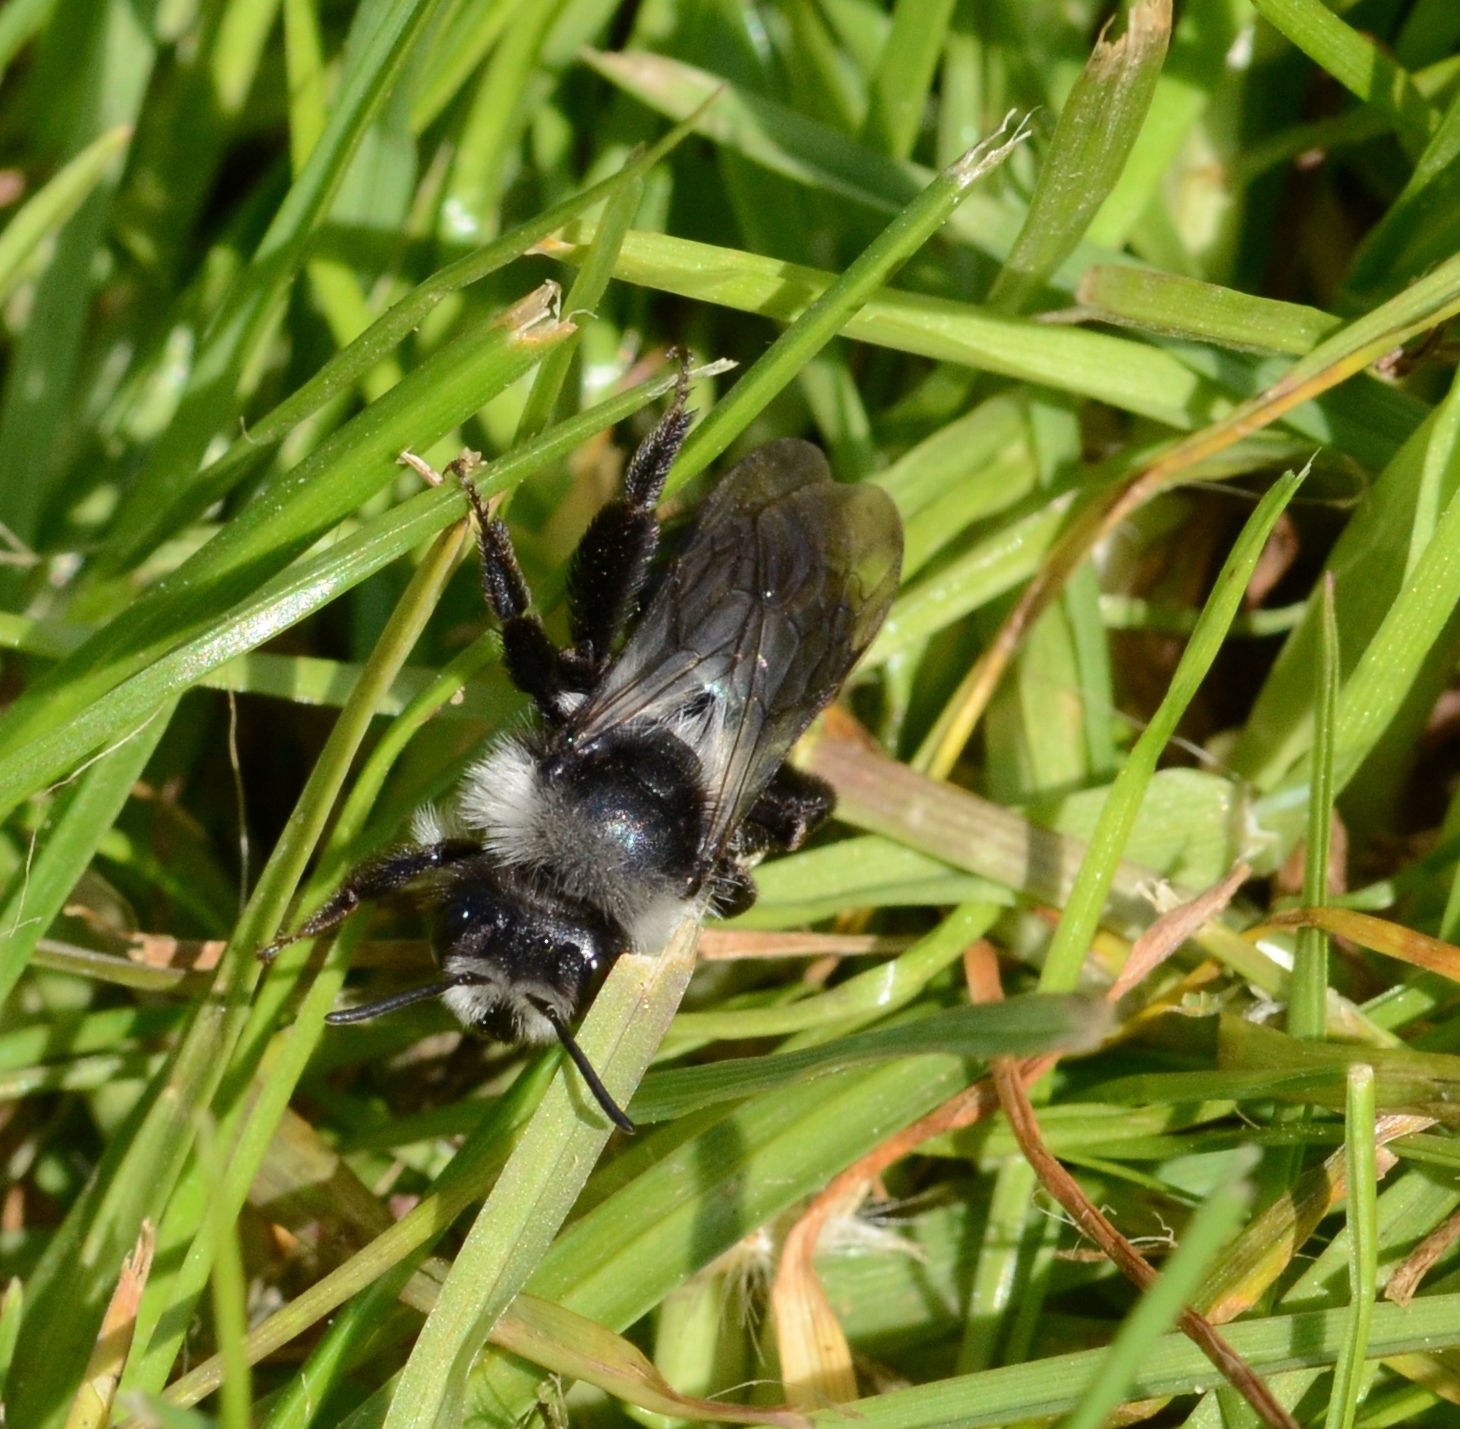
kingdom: Animalia
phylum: Arthropoda
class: Insecta
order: Hymenoptera
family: Andrenidae
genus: Andrena
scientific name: Andrena cineraria
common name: Ashy mining bee
